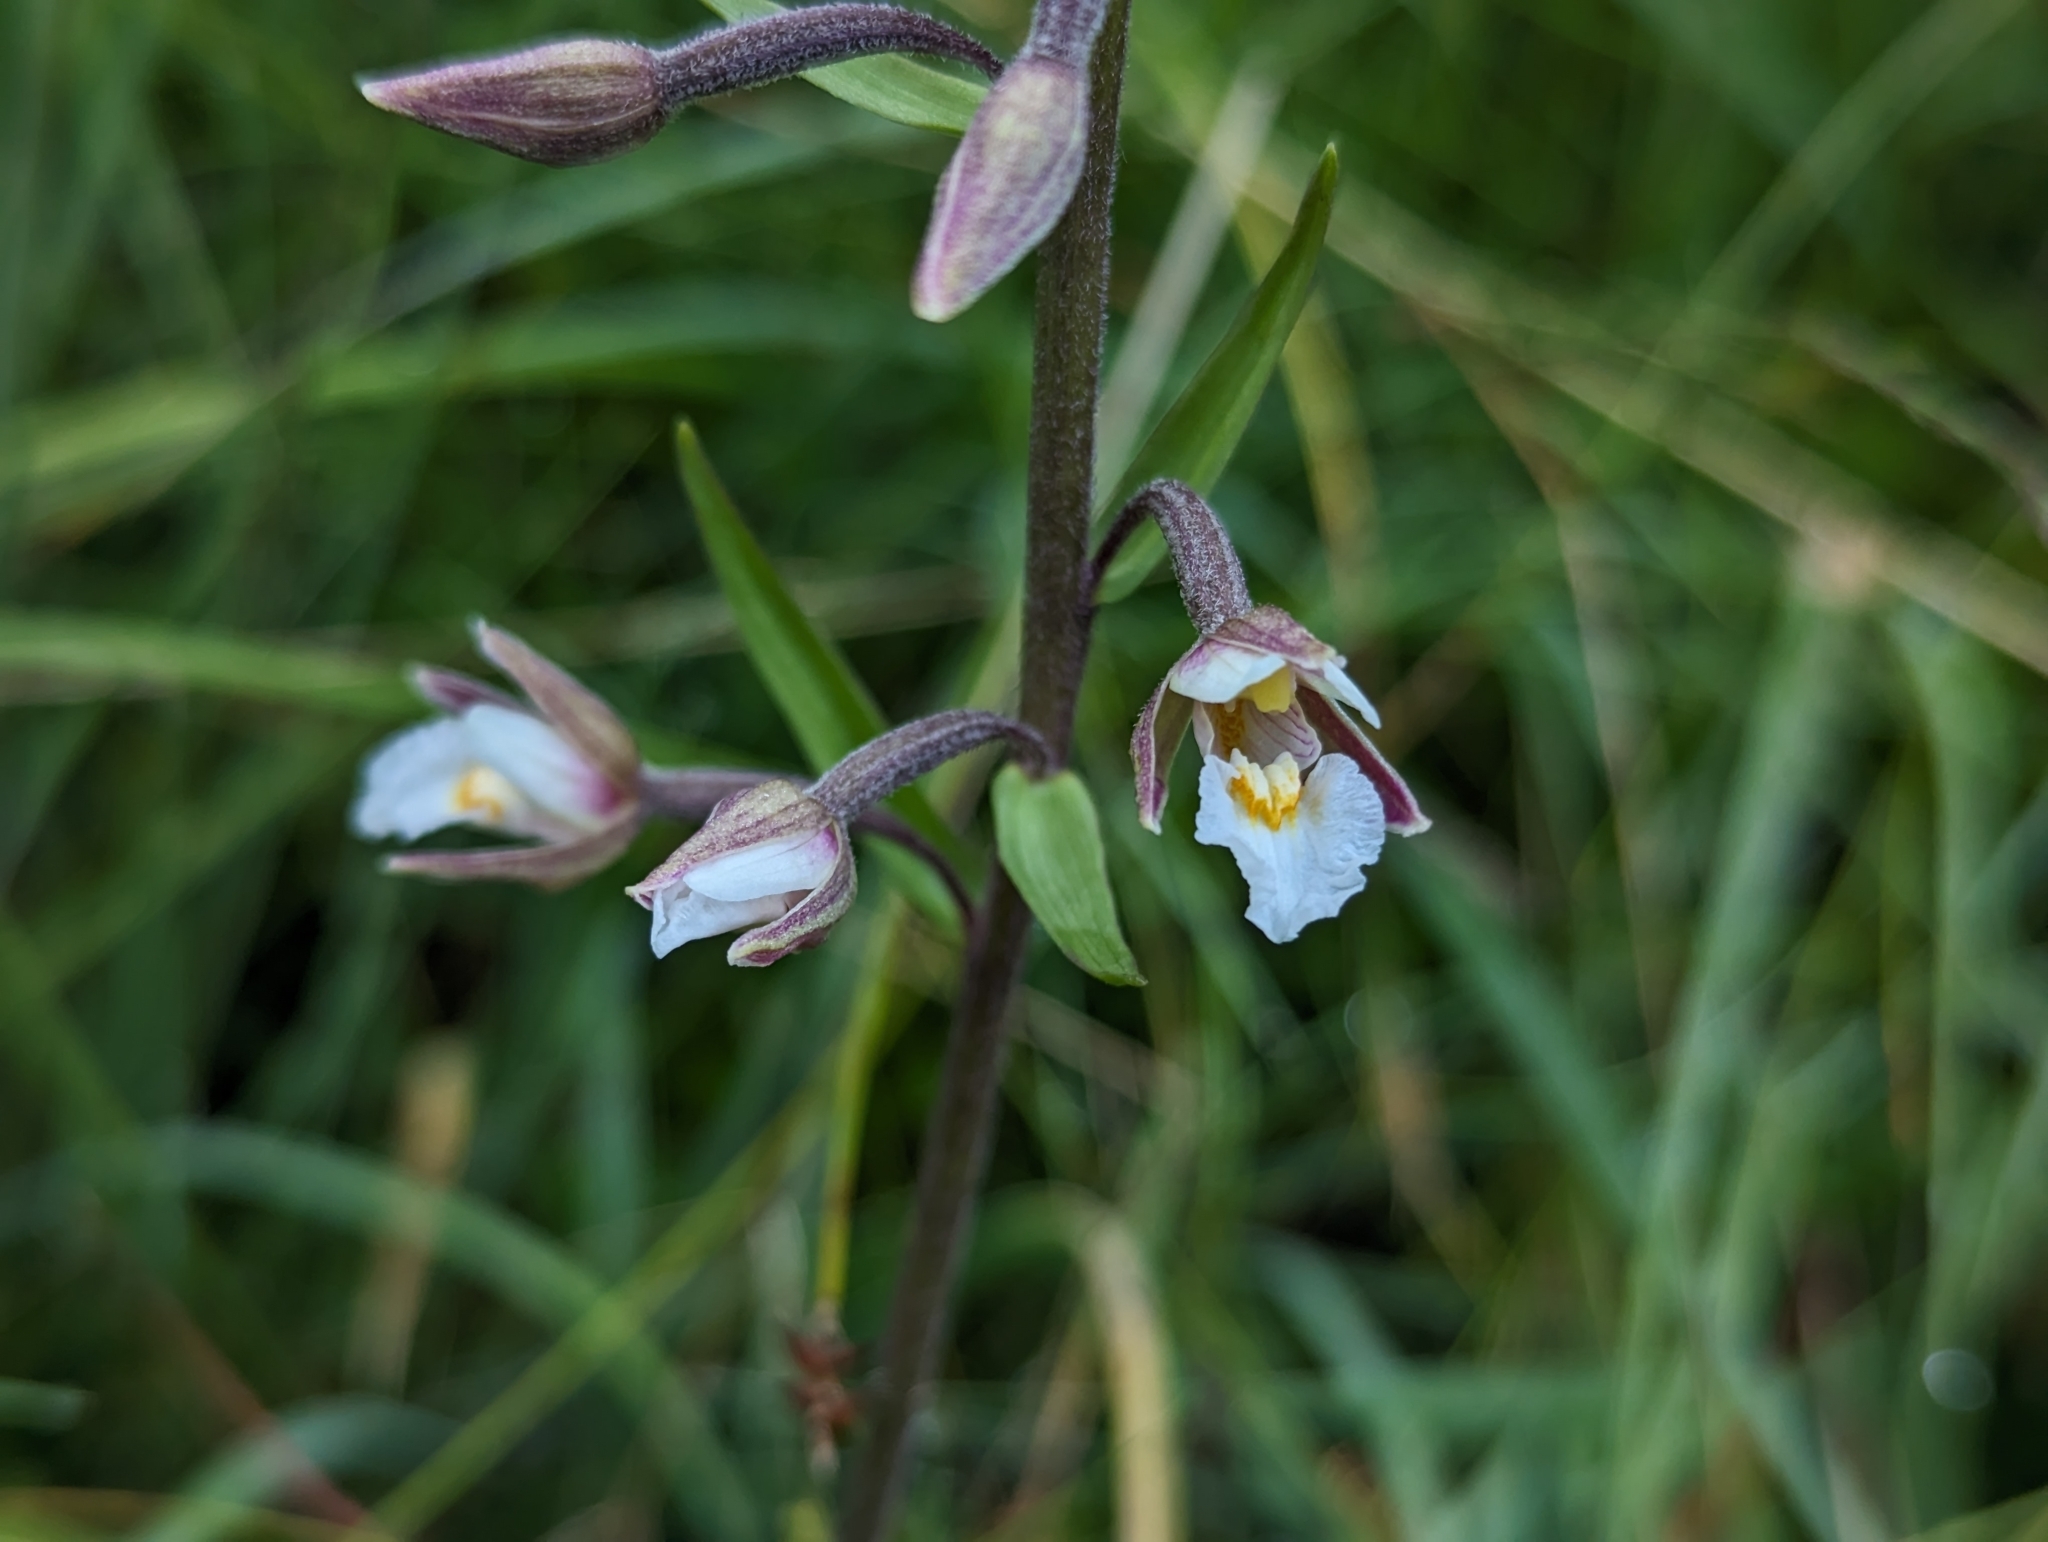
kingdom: Plantae
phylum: Tracheophyta
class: Liliopsida
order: Asparagales
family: Orchidaceae
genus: Epipactis
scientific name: Epipactis palustris
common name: Marsh helleborine
